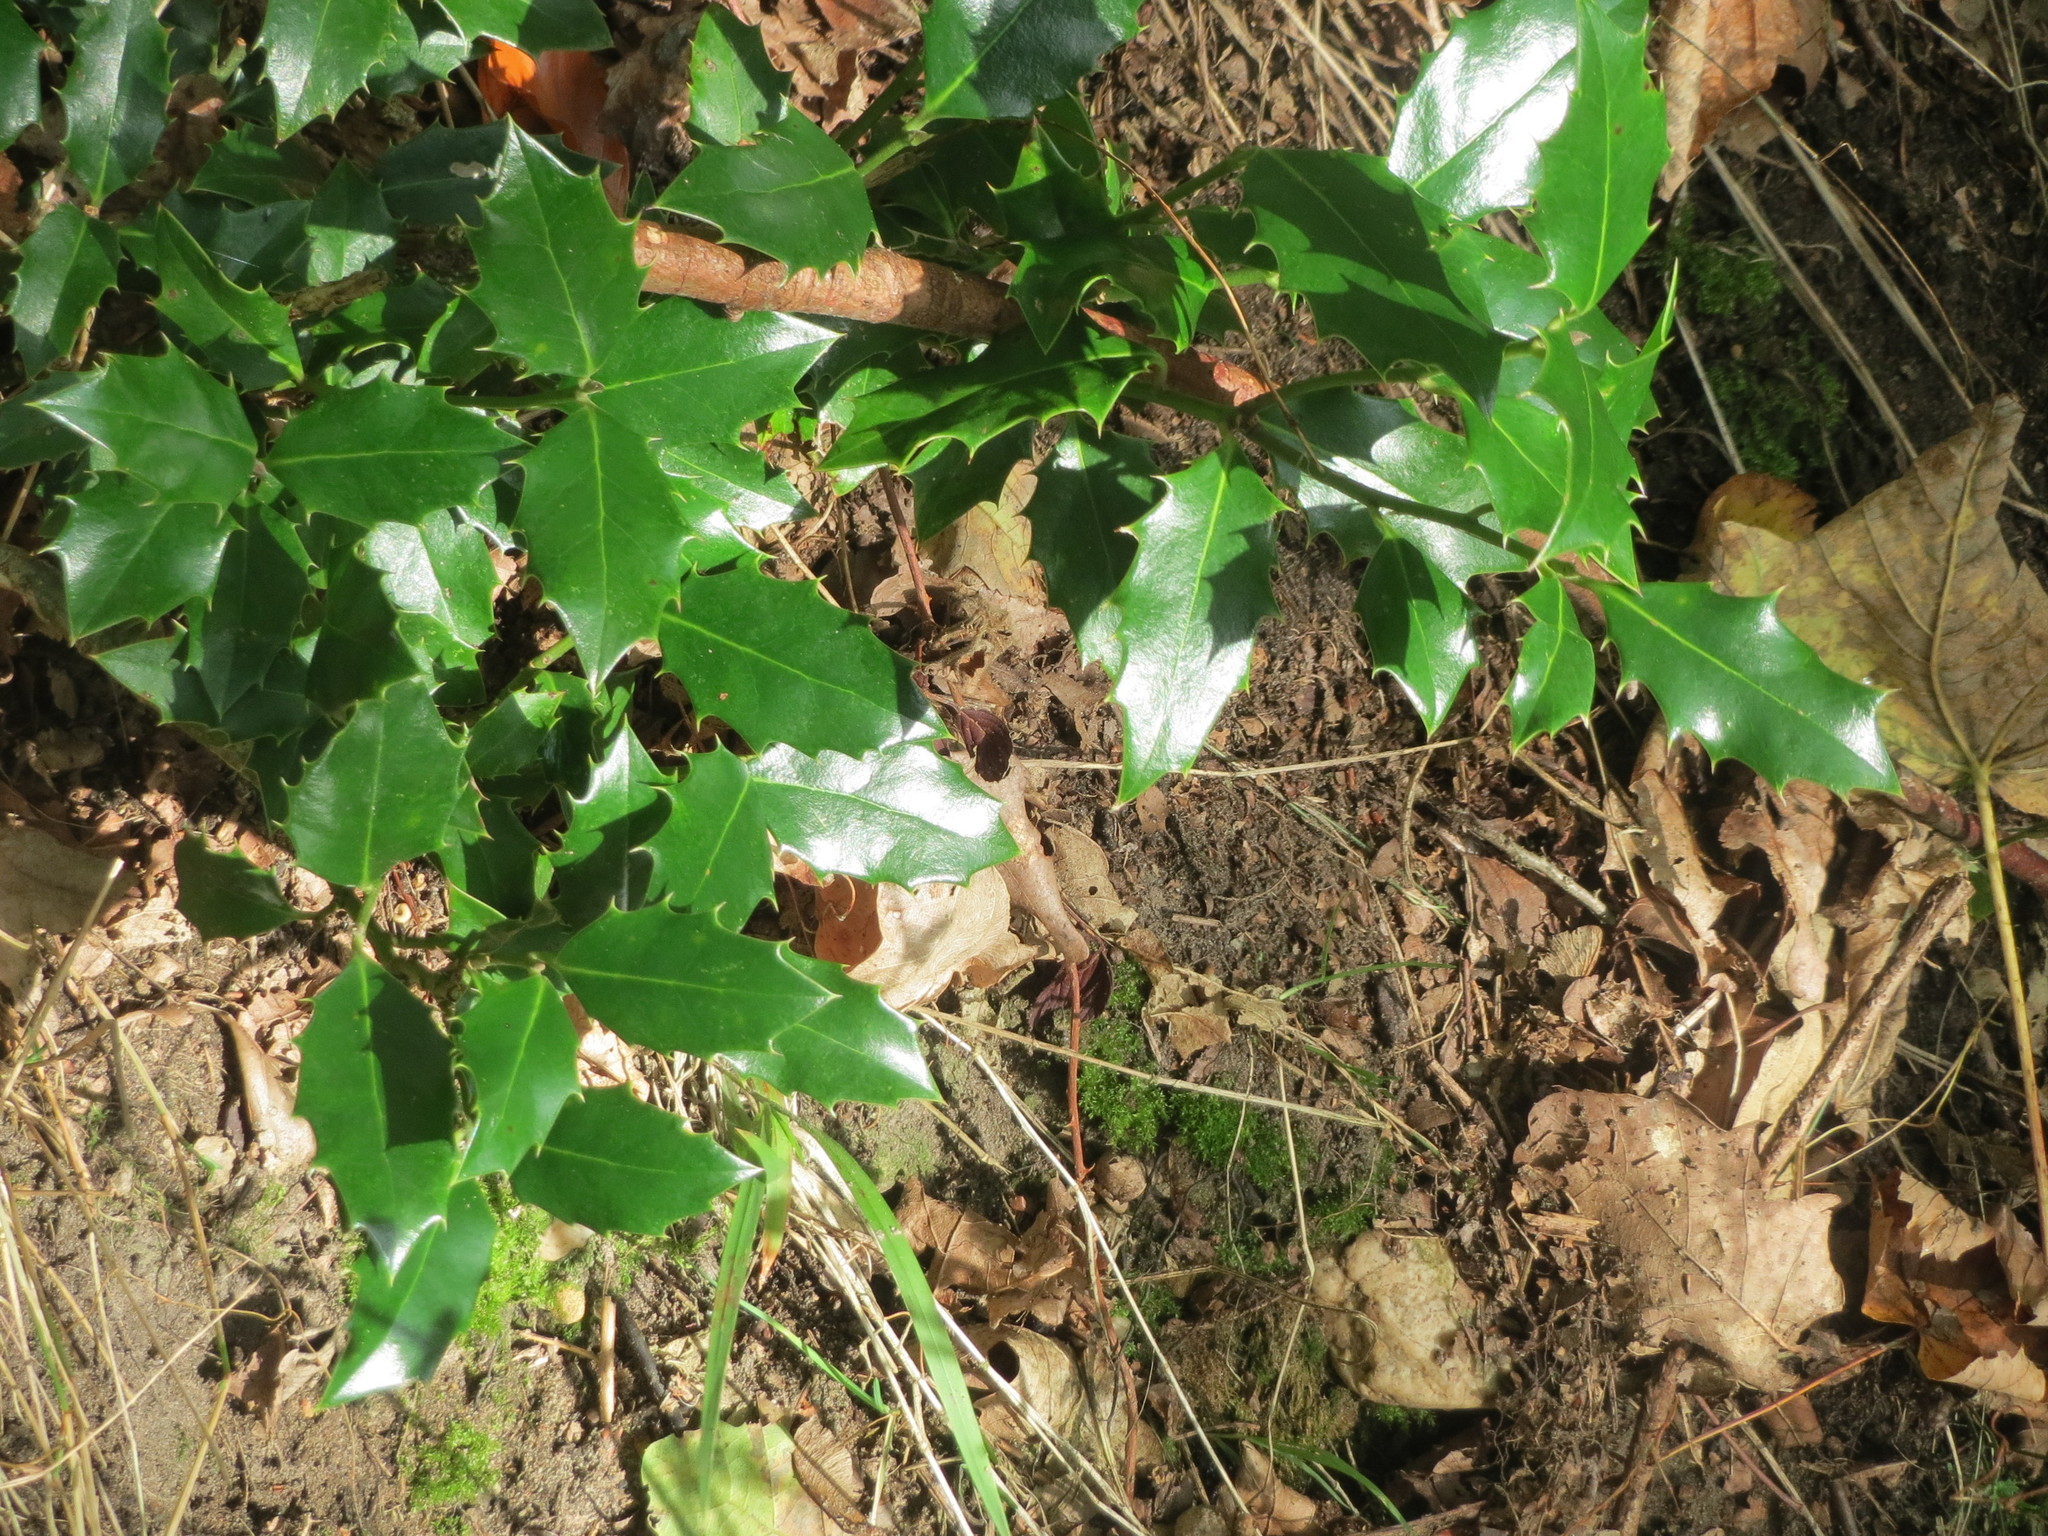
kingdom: Plantae
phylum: Tracheophyta
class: Magnoliopsida
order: Aquifoliales
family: Aquifoliaceae
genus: Ilex
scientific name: Ilex aquifolium
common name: English holly
